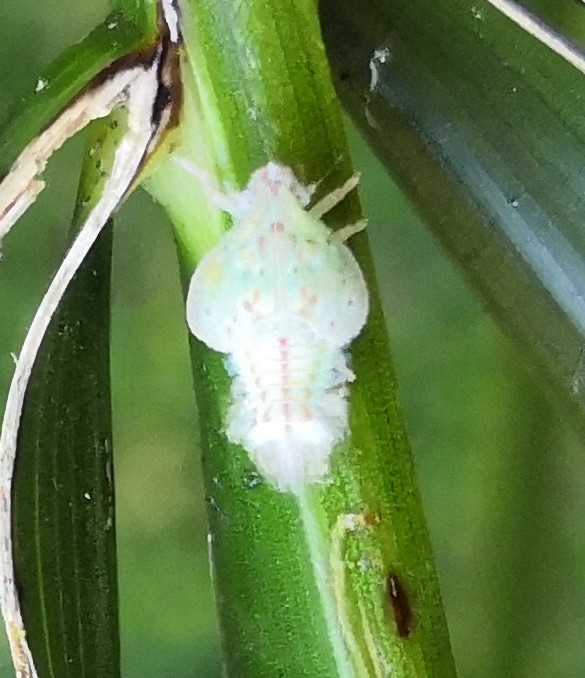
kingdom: Animalia
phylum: Arthropoda
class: Insecta
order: Hemiptera
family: Flatidae
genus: Siphanta
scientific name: Siphanta acuta
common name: Torpedo bug
